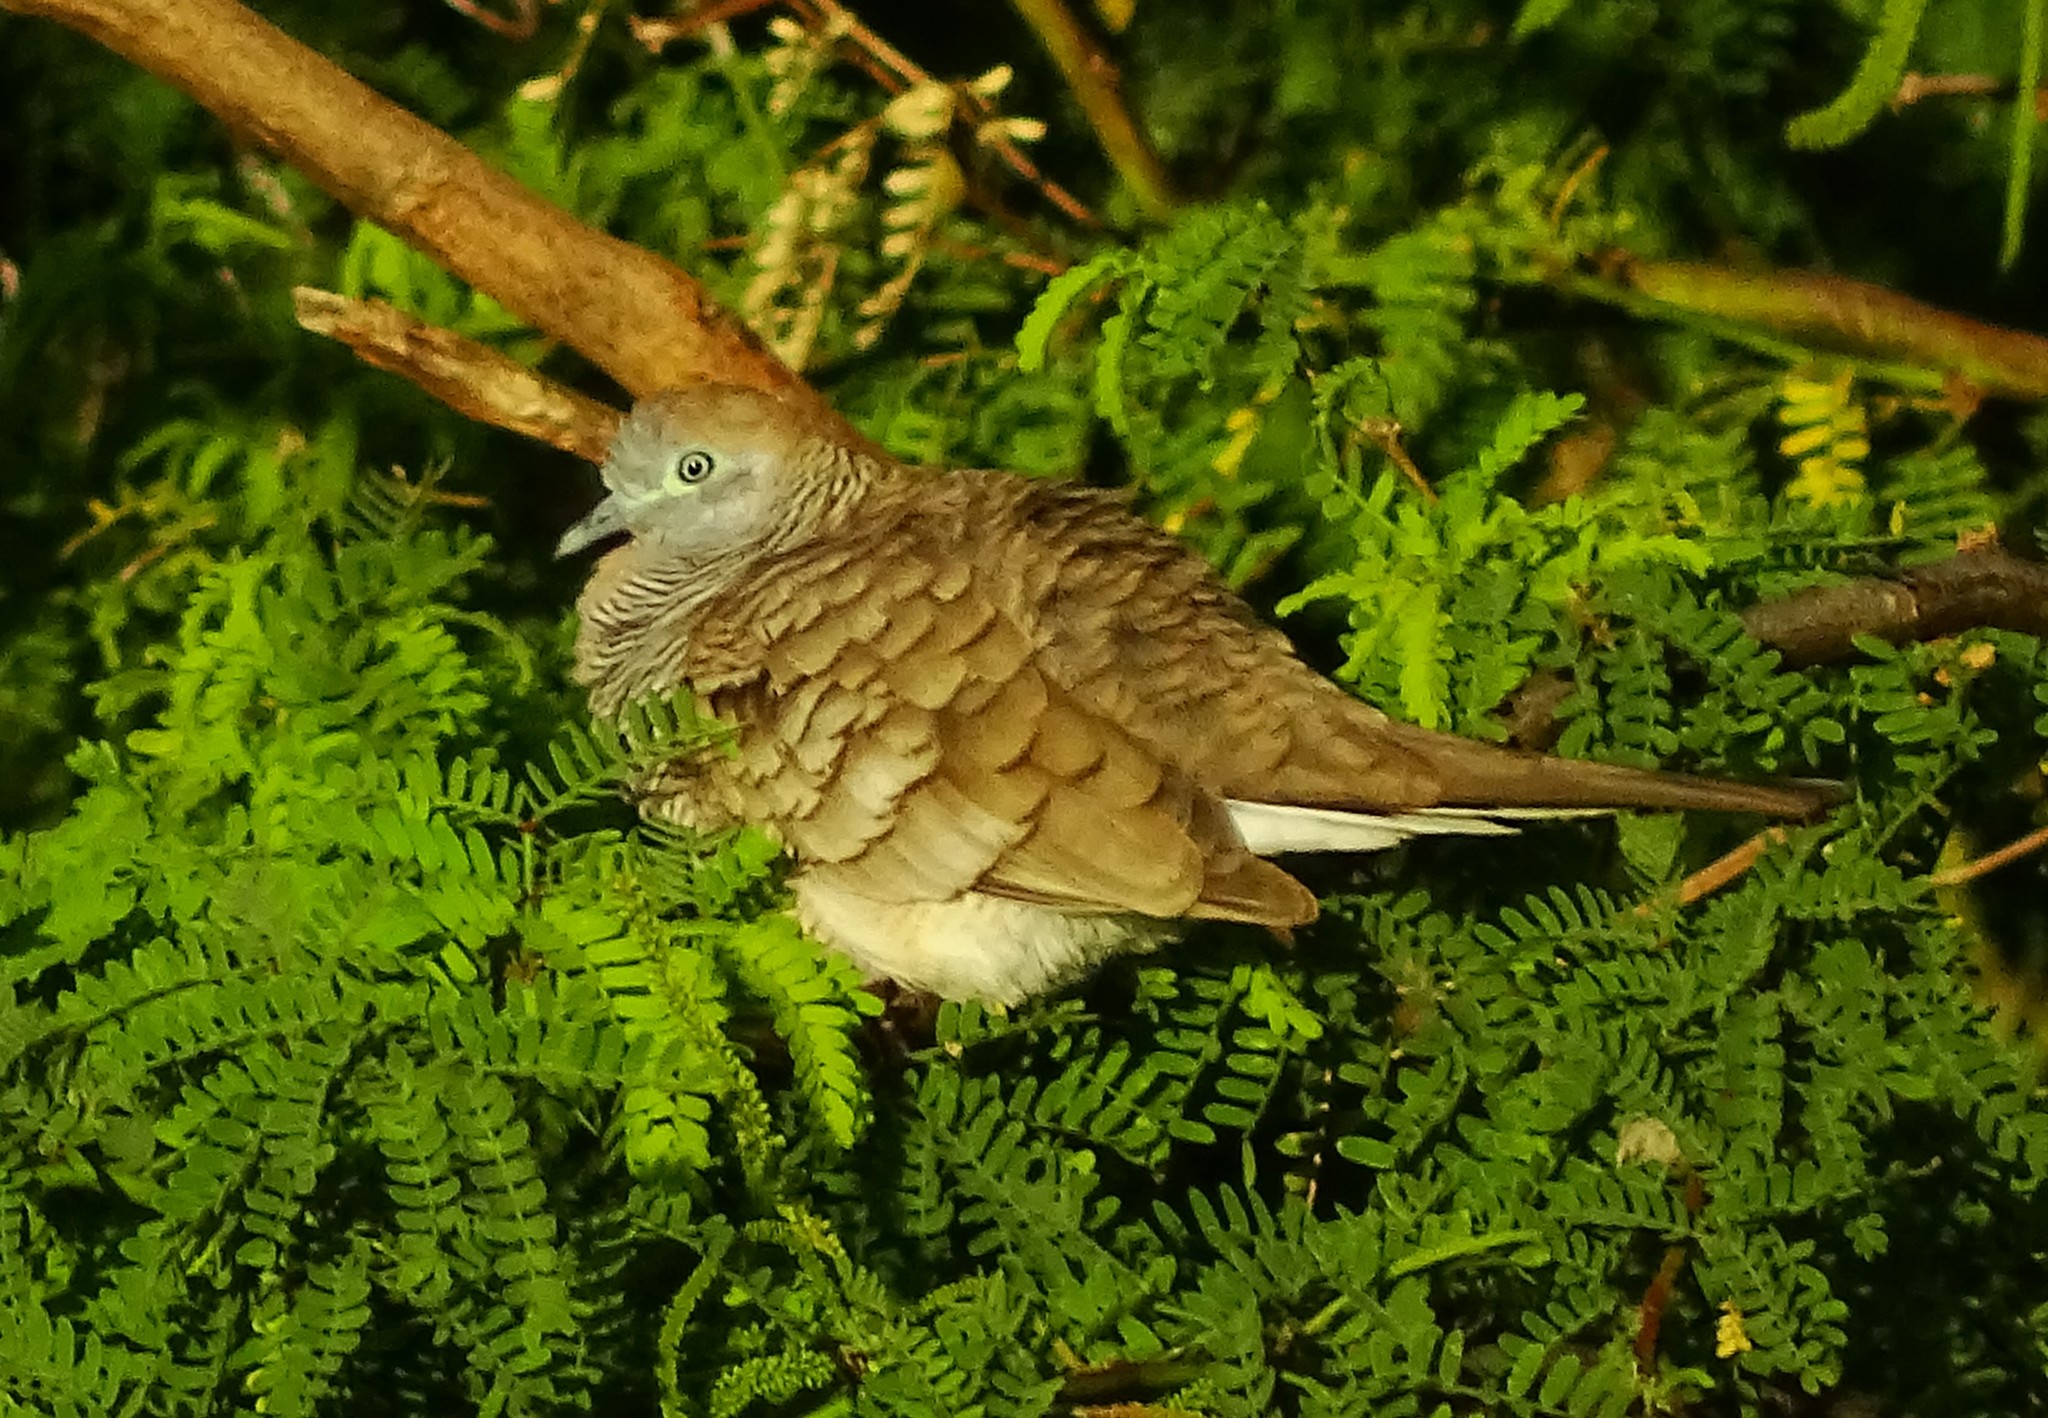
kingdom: Animalia
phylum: Chordata
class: Aves
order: Columbiformes
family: Columbidae
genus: Geopelia
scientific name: Geopelia striata
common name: Zebra dove
